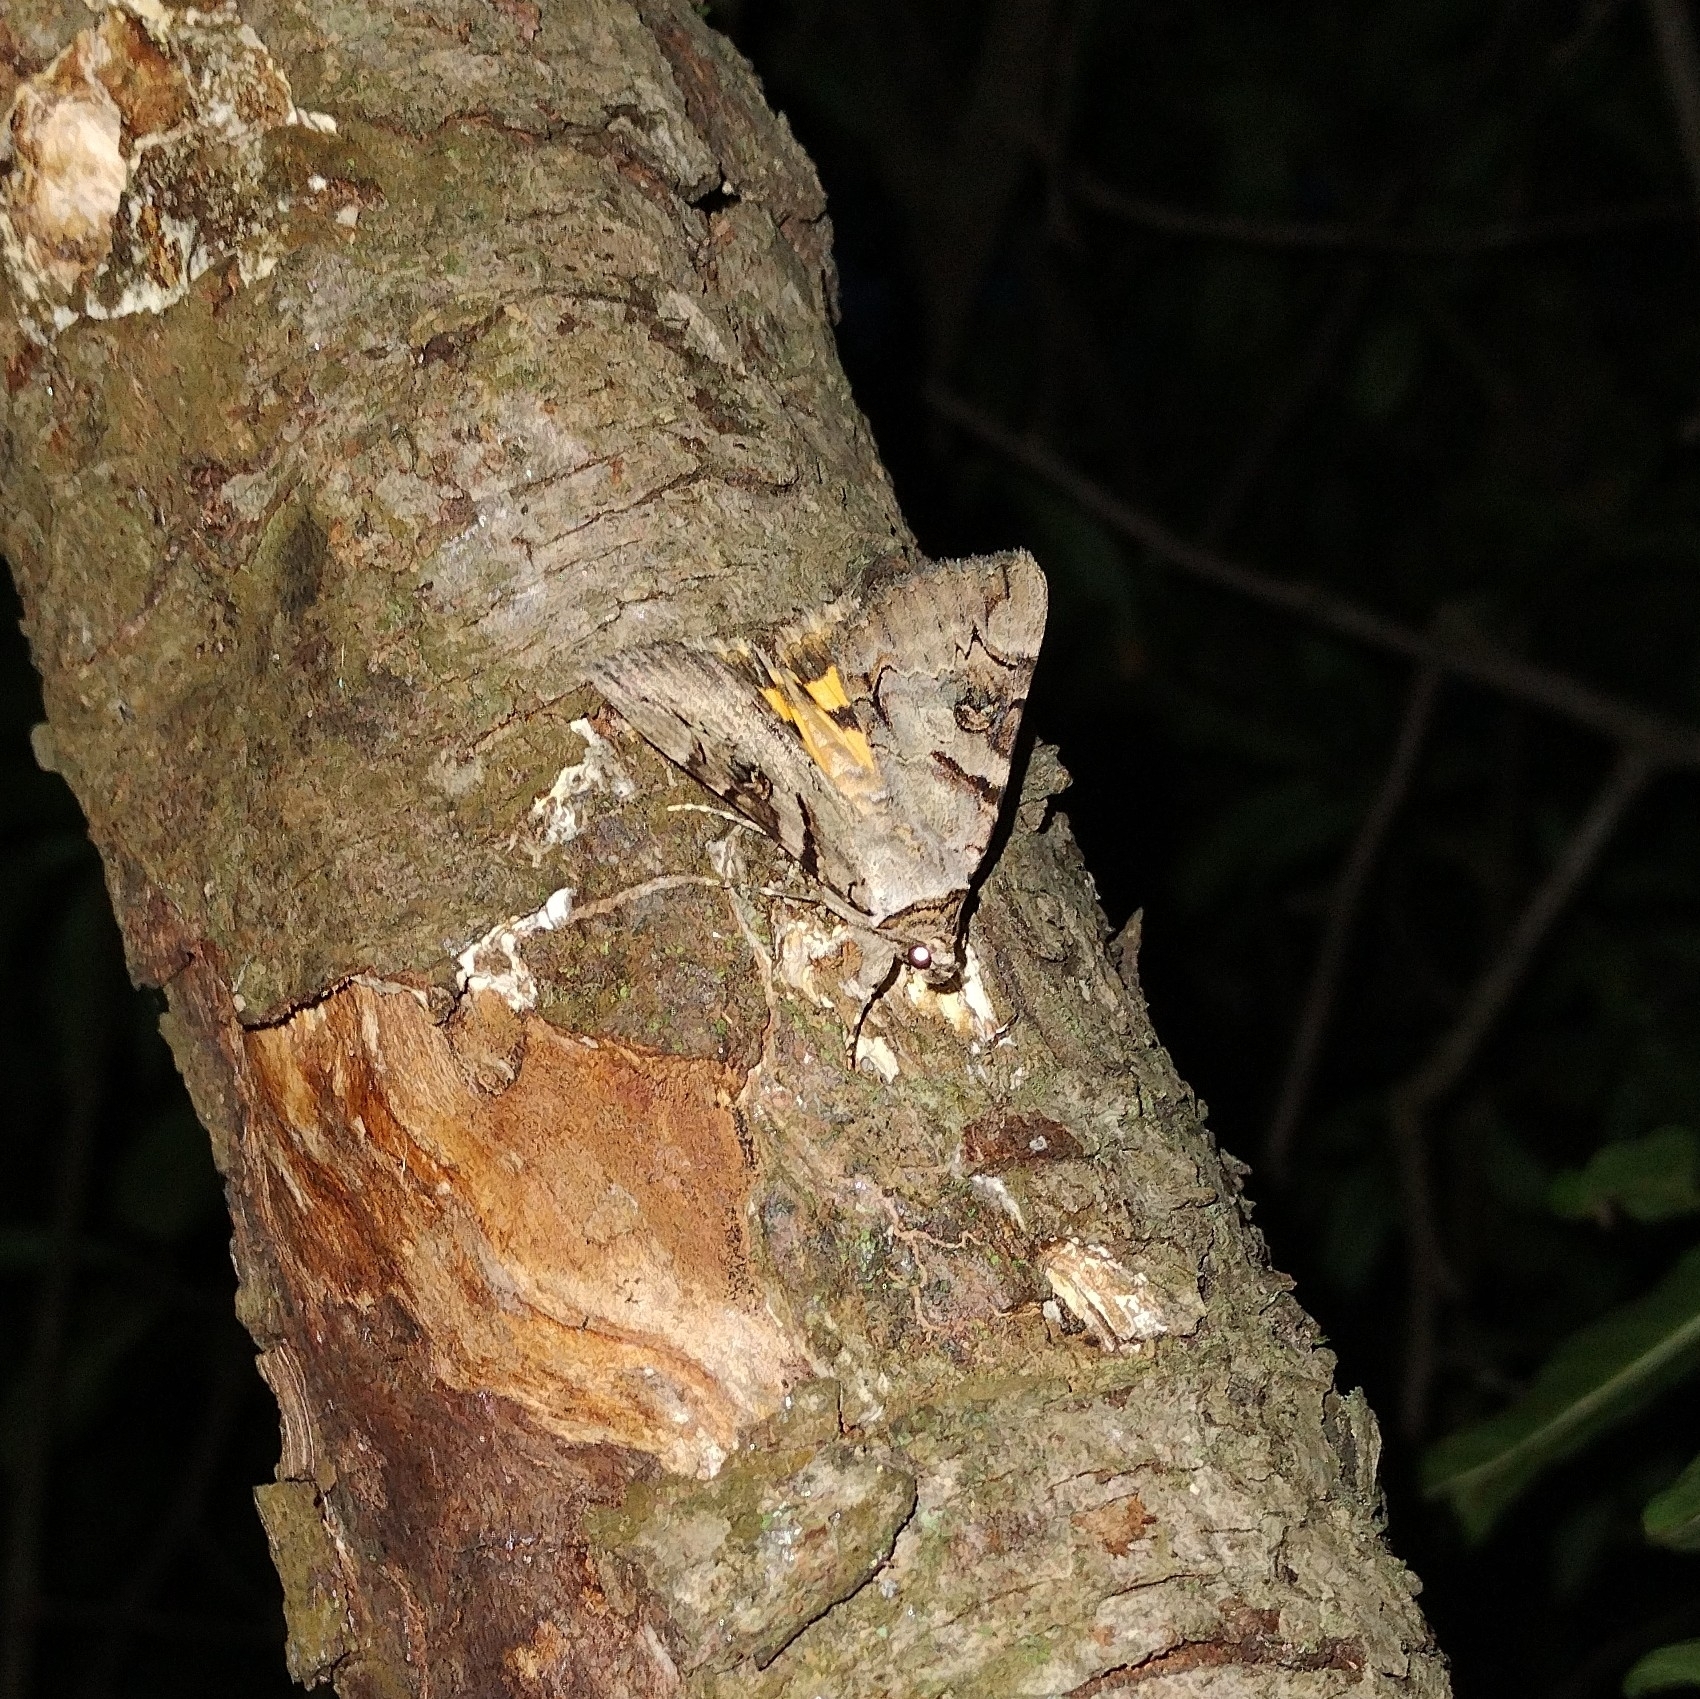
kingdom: Animalia
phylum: Arthropoda
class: Insecta
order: Lepidoptera
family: Erebidae
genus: Catocala
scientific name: Catocala hymenaea
